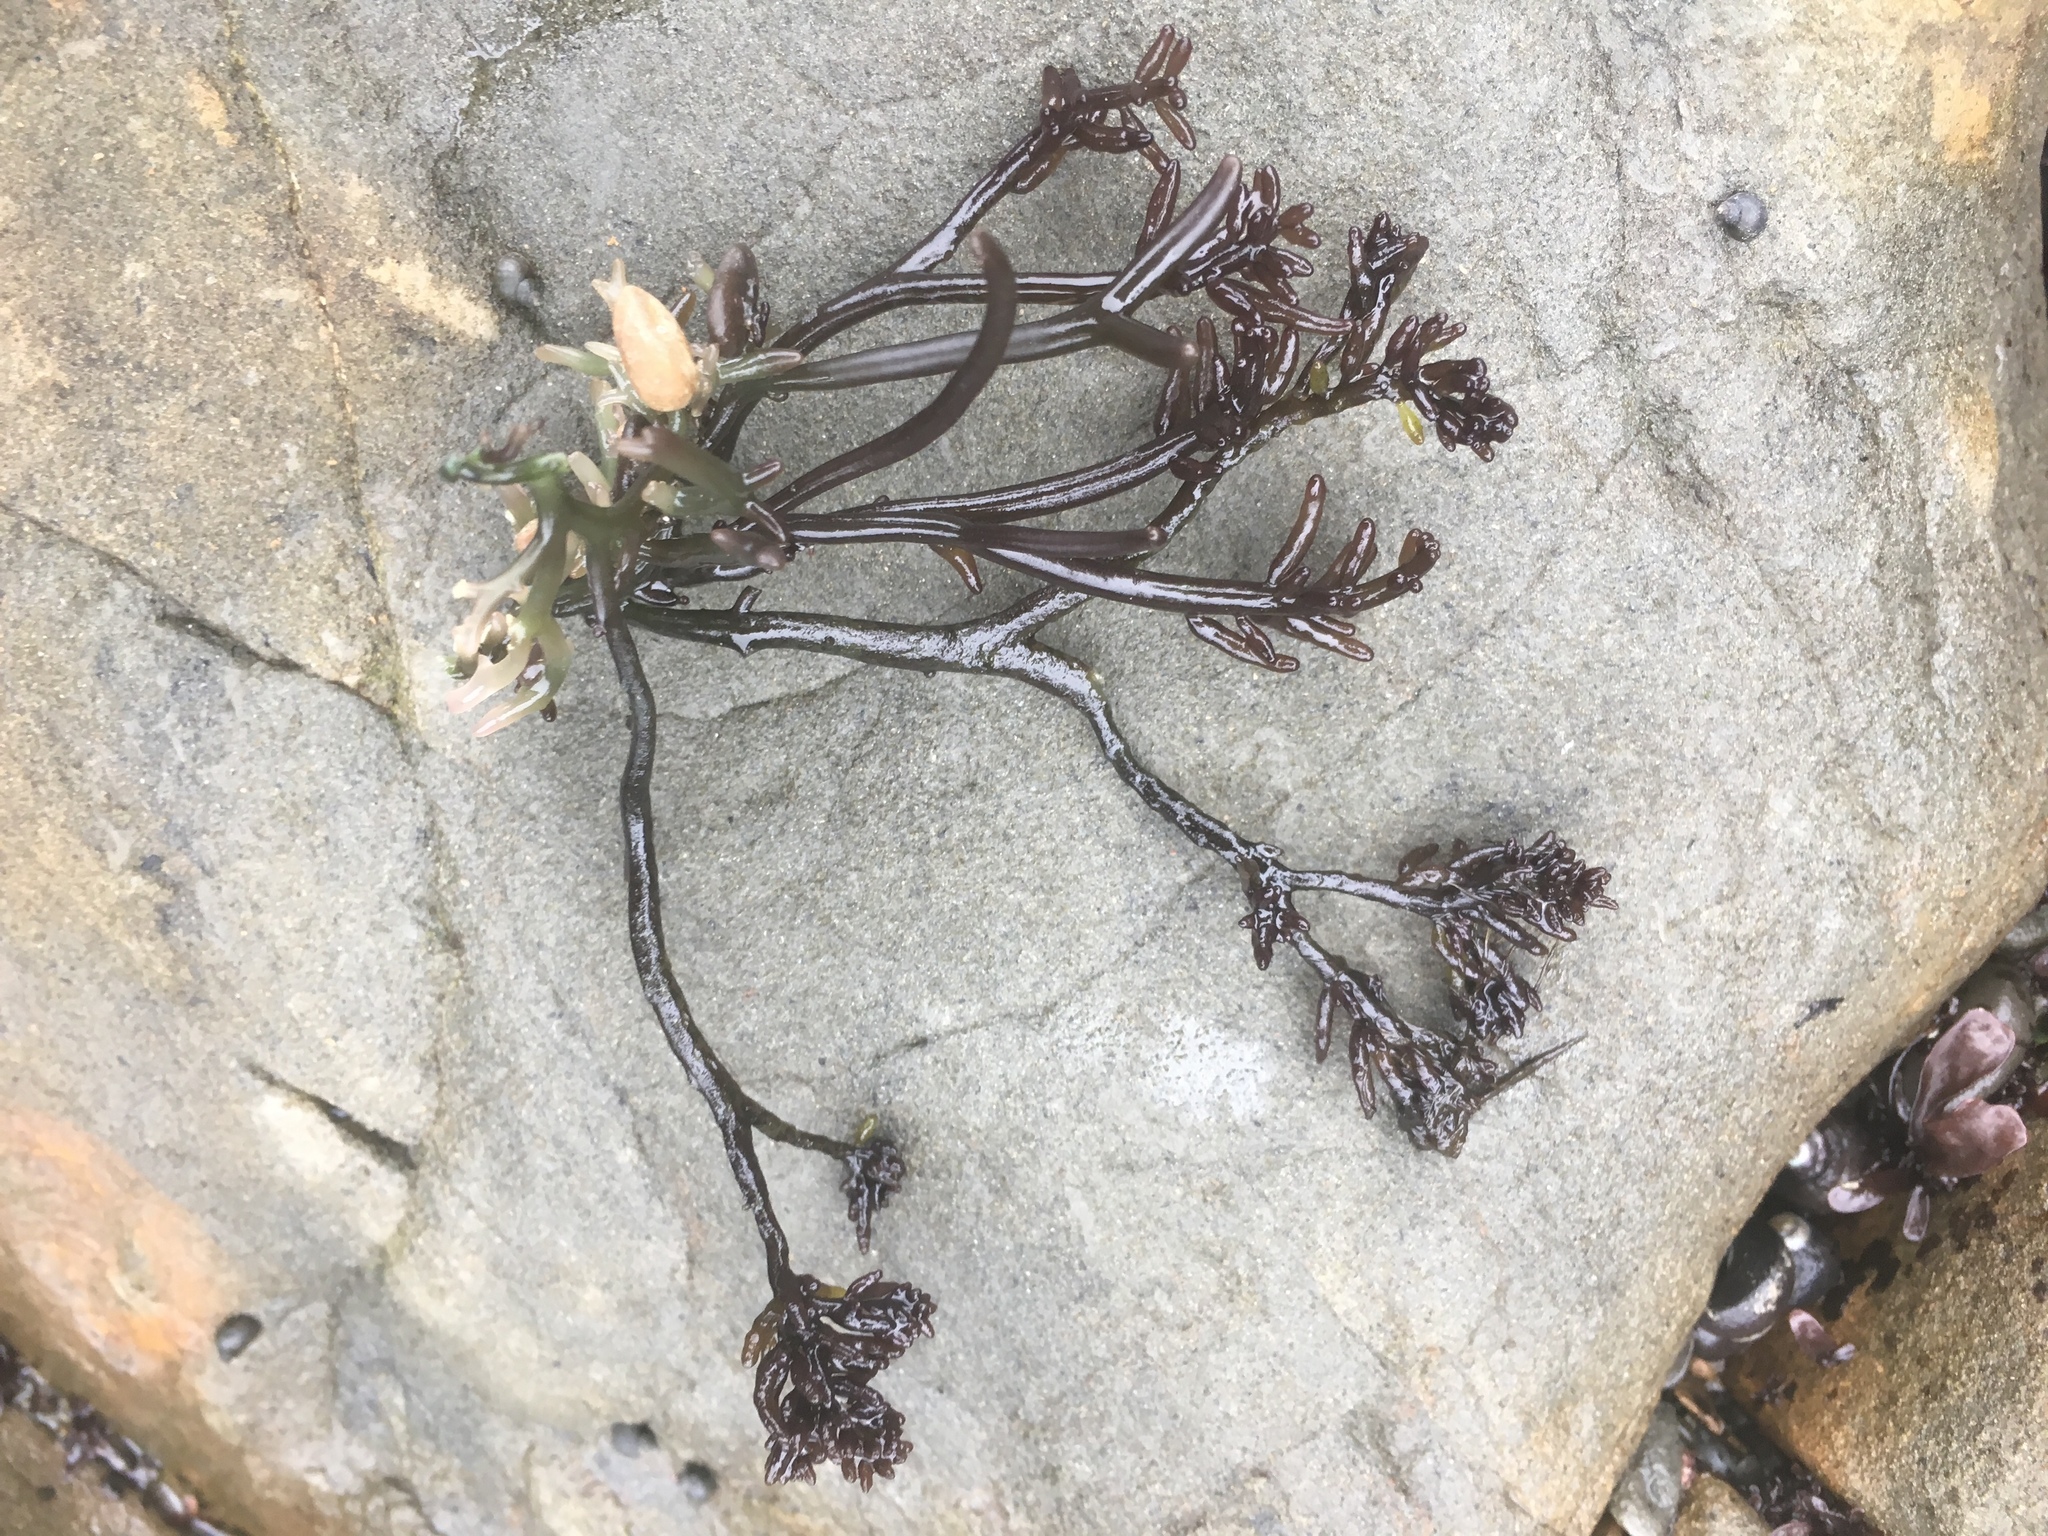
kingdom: Plantae
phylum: Rhodophyta
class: Florideophyceae
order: Rhodymeniales
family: Champiaceae
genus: Neogastroclonium
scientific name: Neogastroclonium subarticulatum
